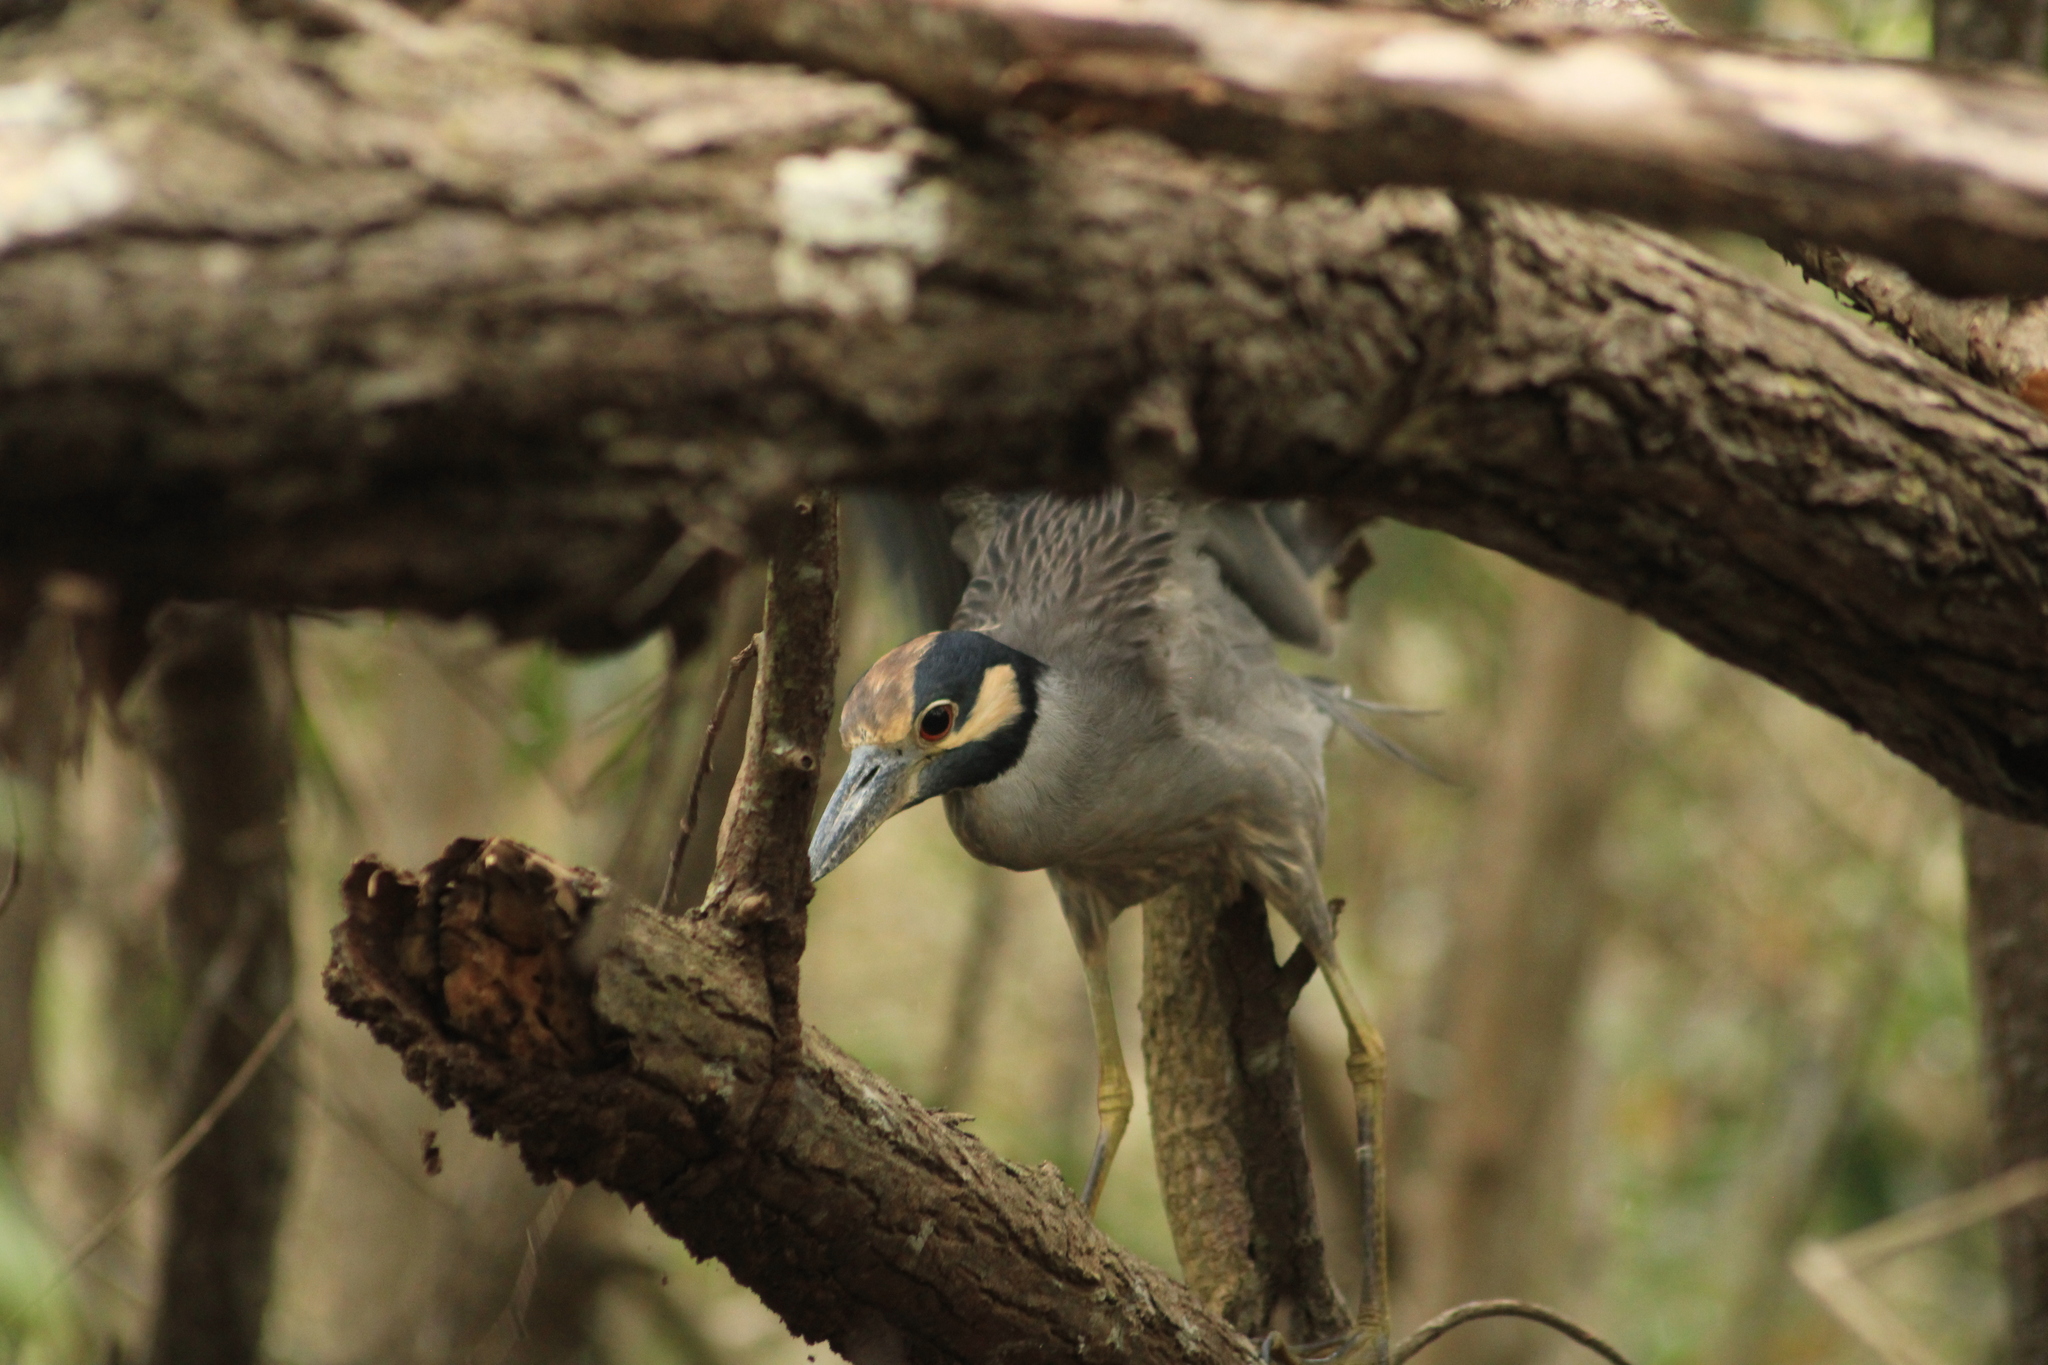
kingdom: Animalia
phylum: Chordata
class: Aves
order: Pelecaniformes
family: Ardeidae
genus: Nyctanassa
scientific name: Nyctanassa violacea
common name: Yellow-crowned night heron
